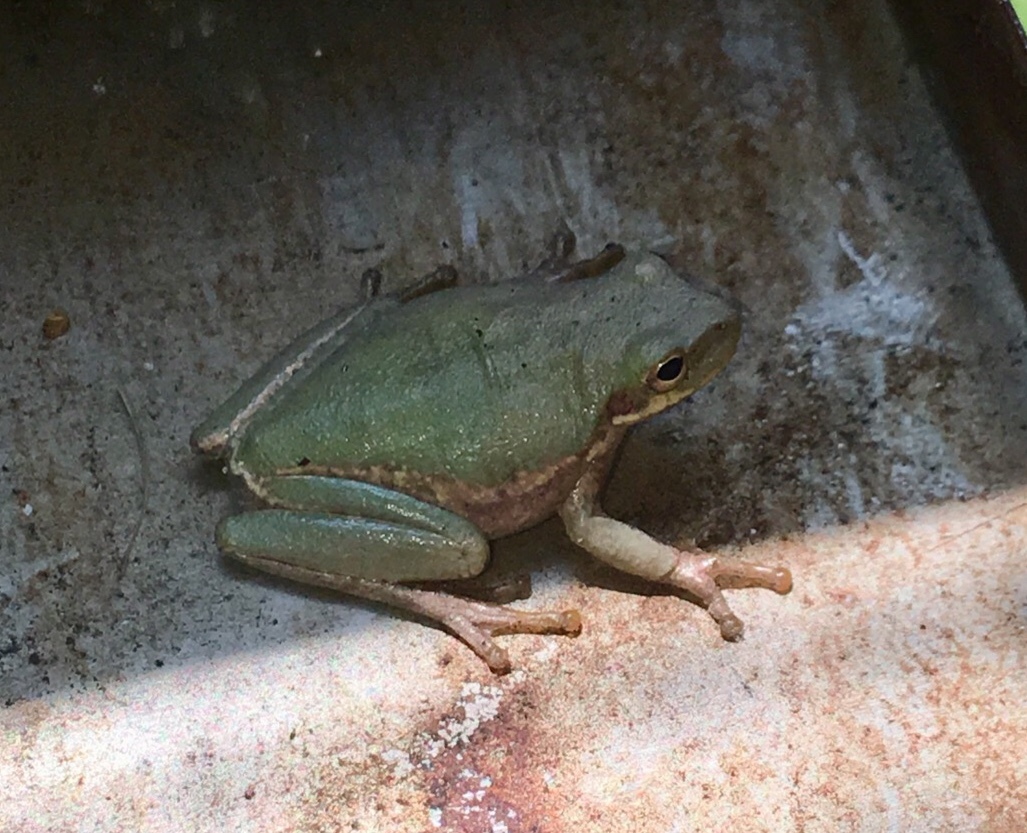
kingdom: Animalia
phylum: Chordata
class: Amphibia
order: Anura
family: Hylidae
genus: Dryophytes
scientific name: Dryophytes squirellus
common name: Squirrel treefrog
